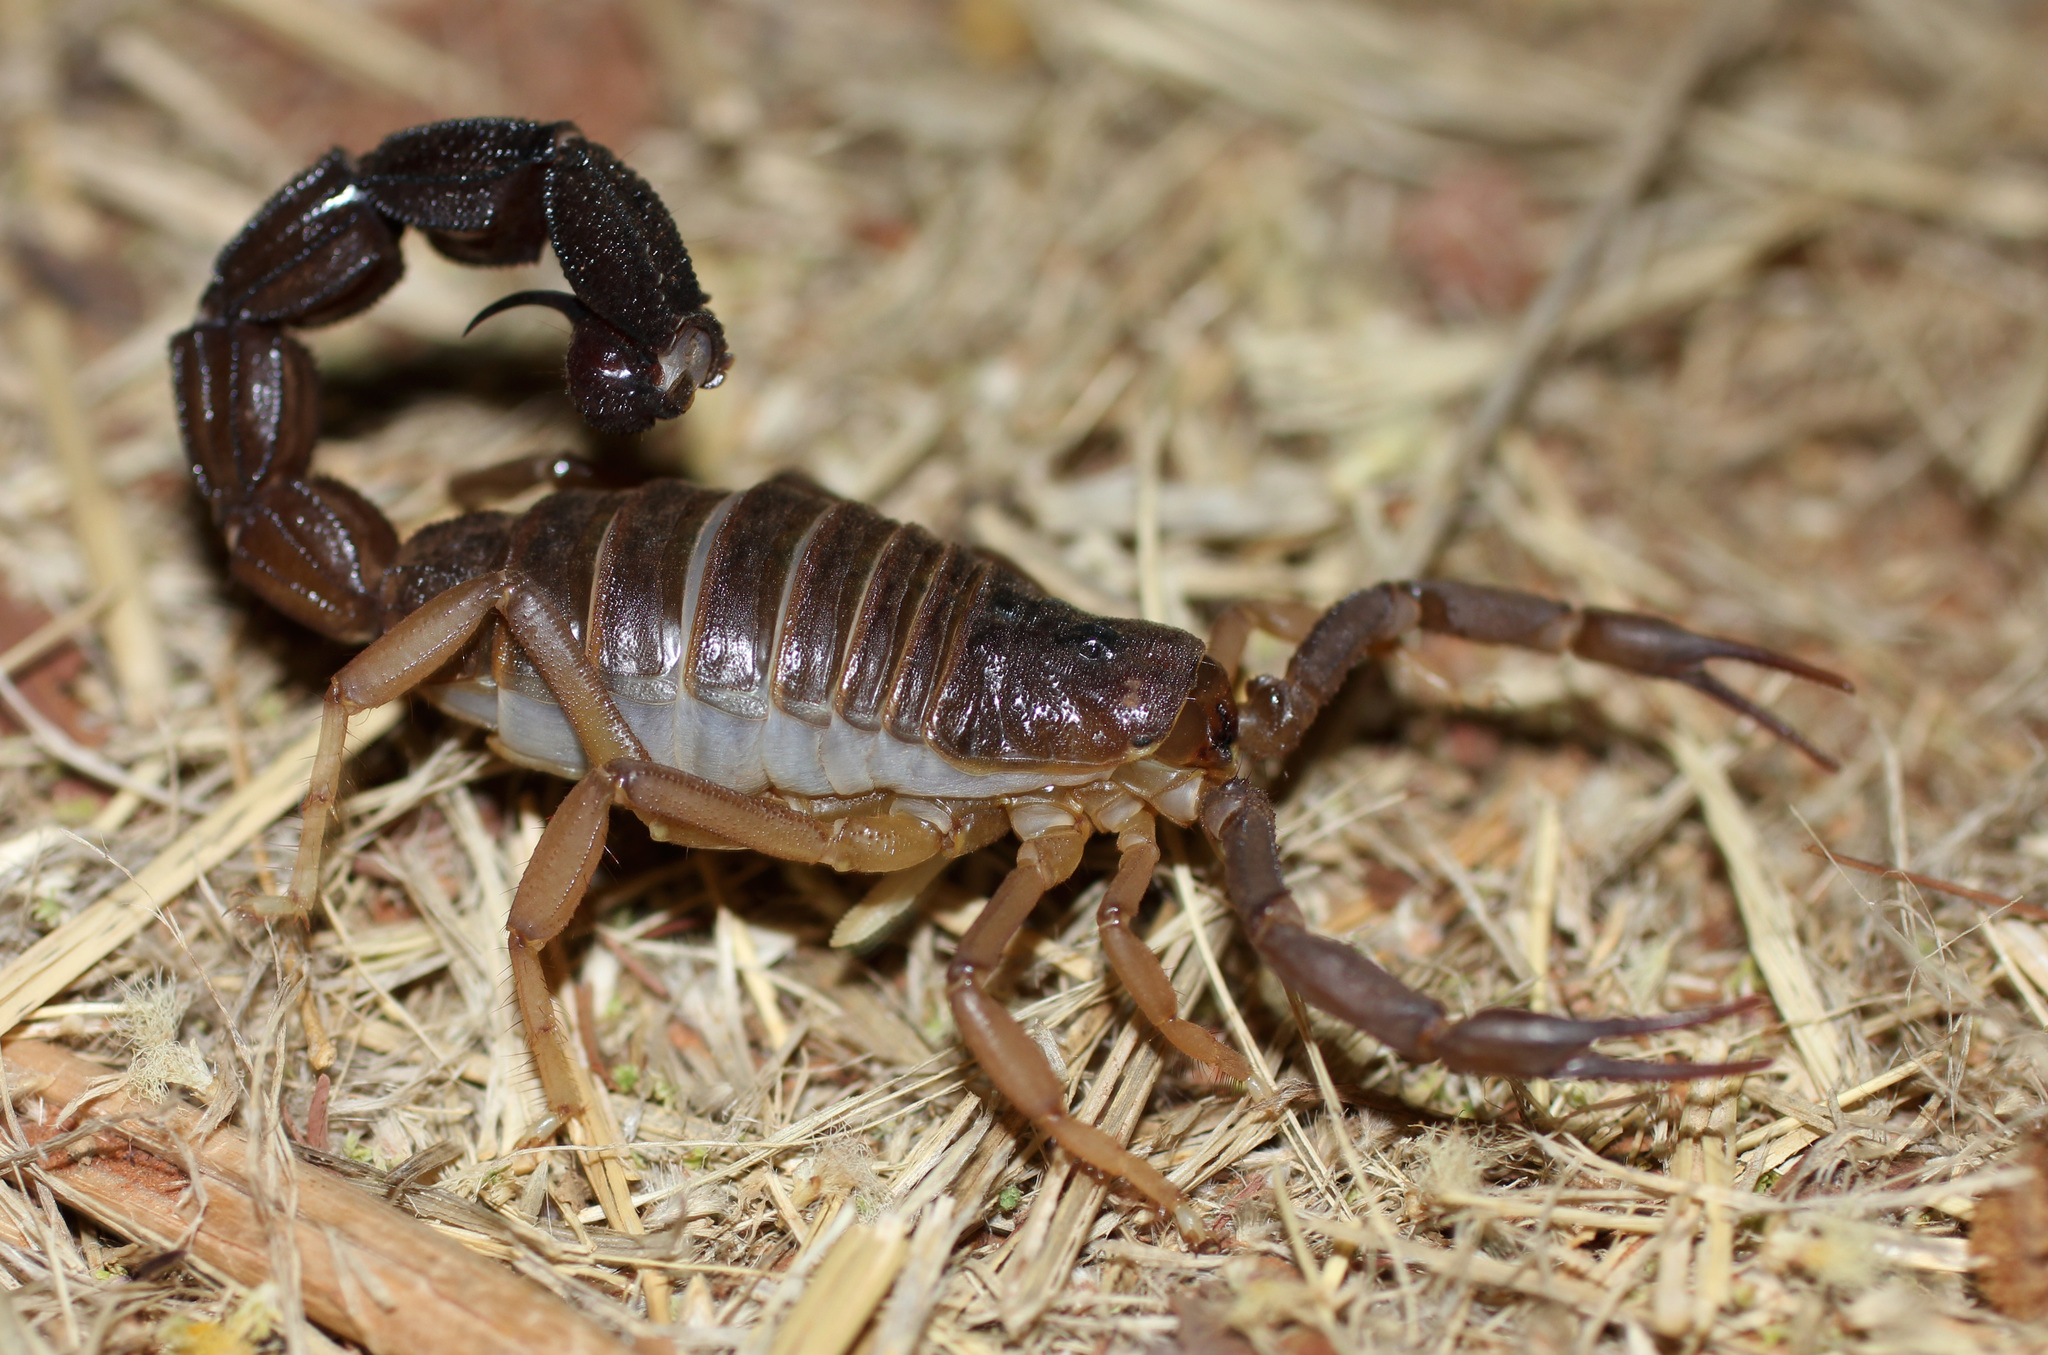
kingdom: Animalia
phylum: Arthropoda
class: Arachnida
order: Scorpiones
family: Buthidae
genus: Parabuthus
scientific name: Parabuthus granulatus
